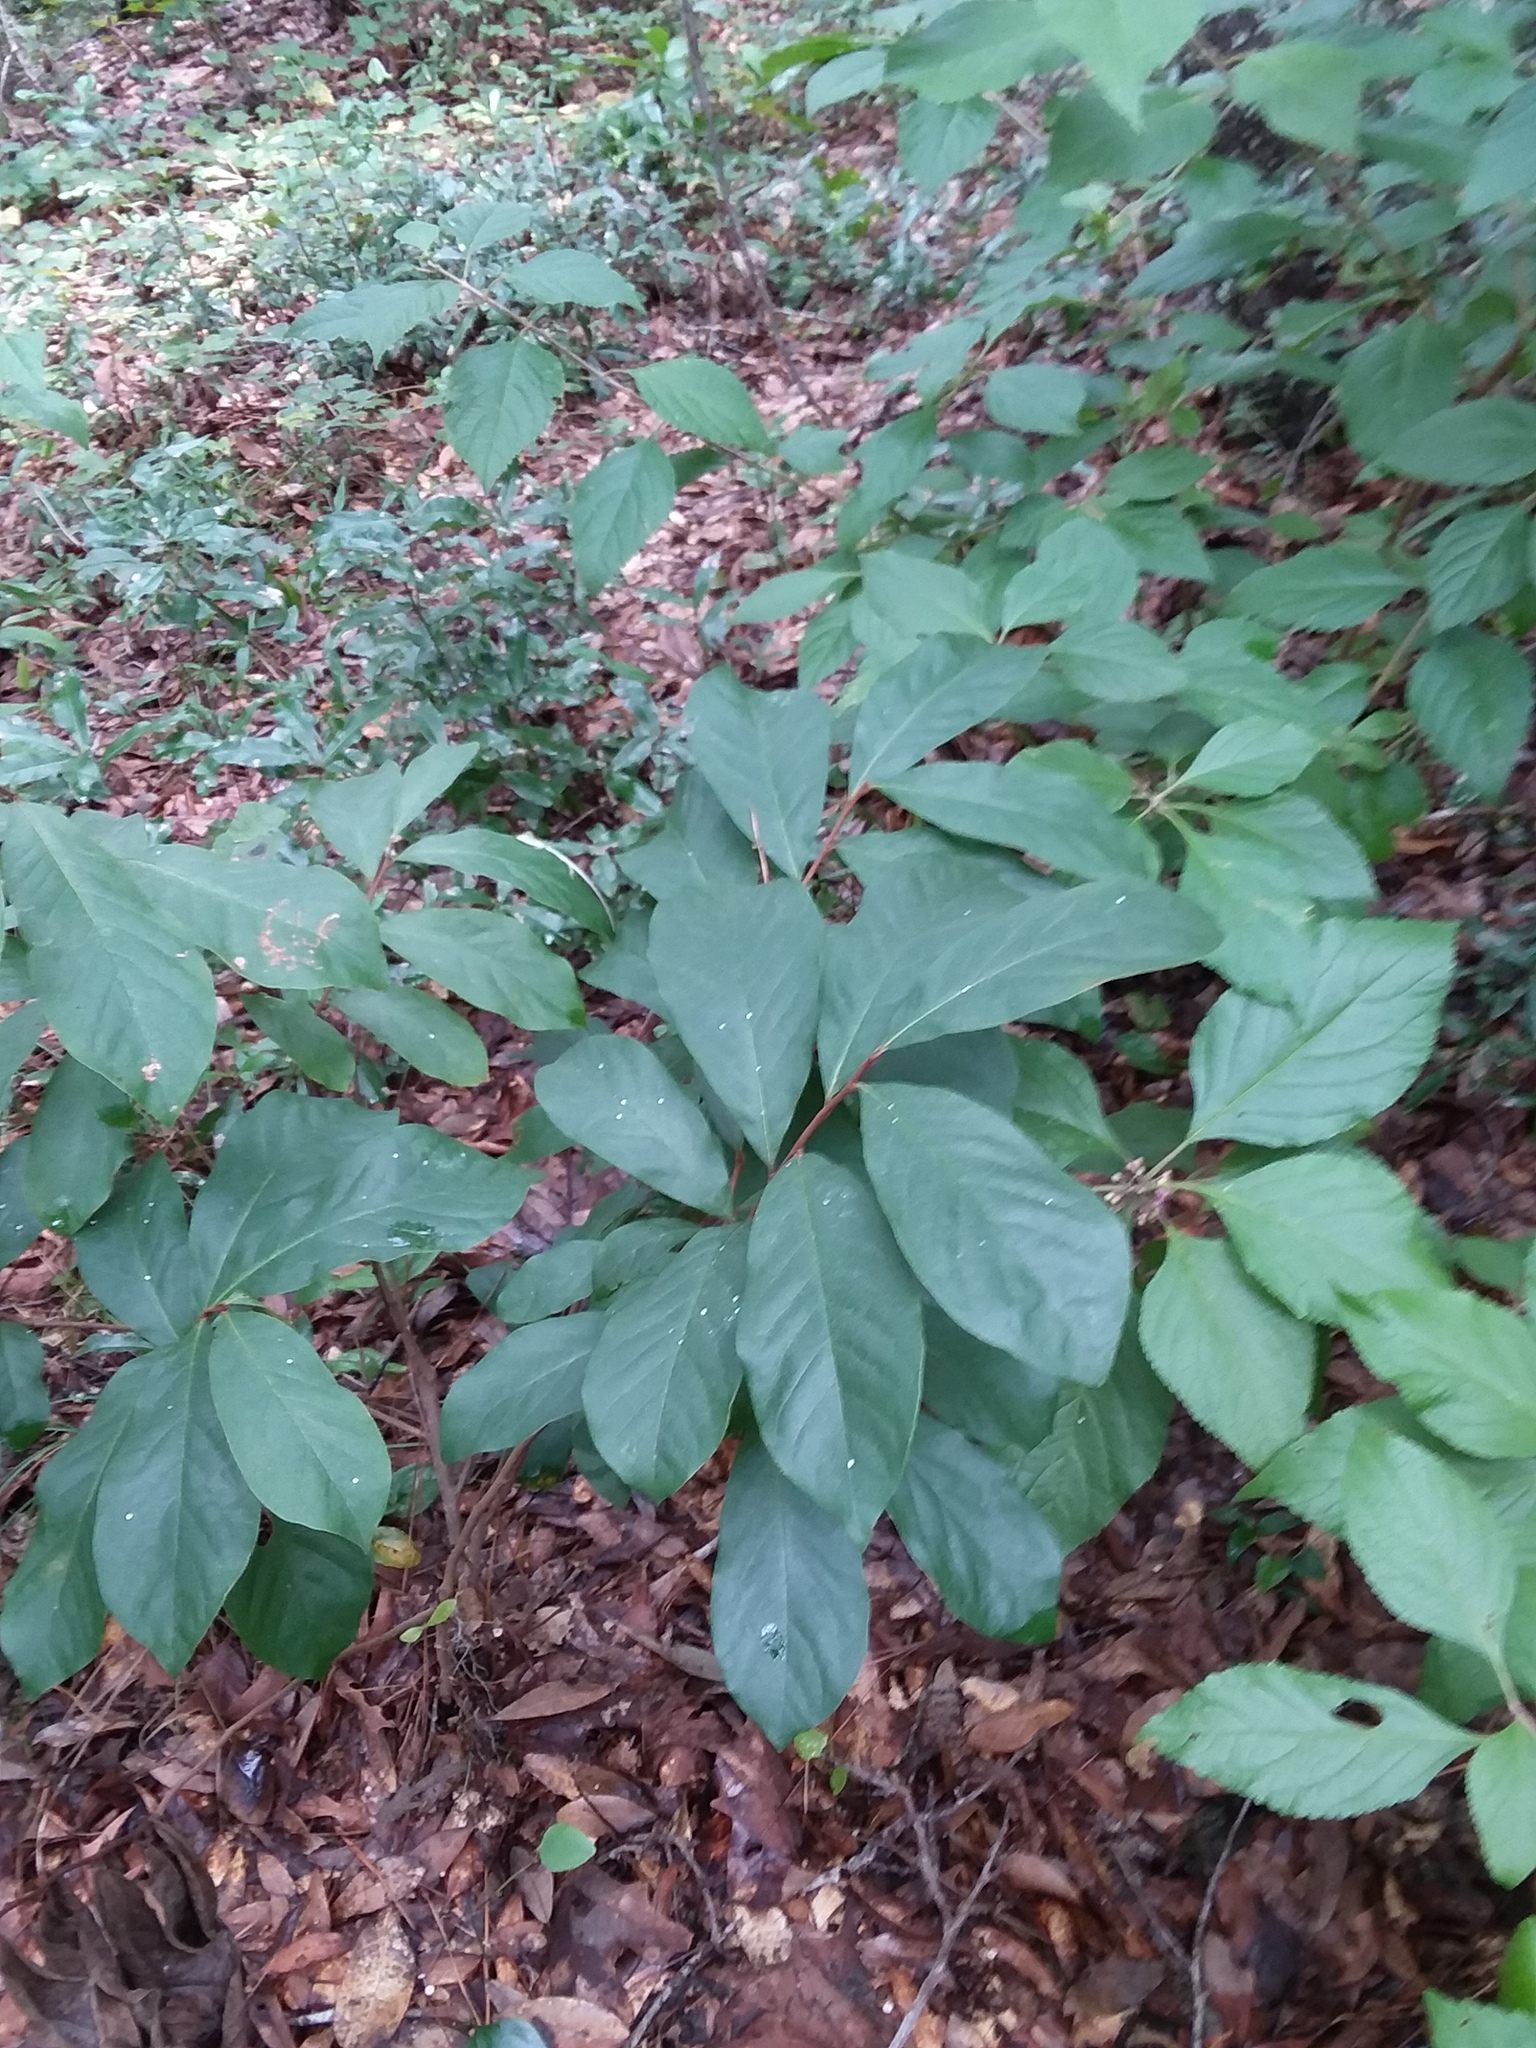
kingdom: Plantae
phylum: Tracheophyta
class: Magnoliopsida
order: Magnoliales
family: Annonaceae
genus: Asimina
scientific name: Asimina parviflora
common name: Dwarf pawpaw
